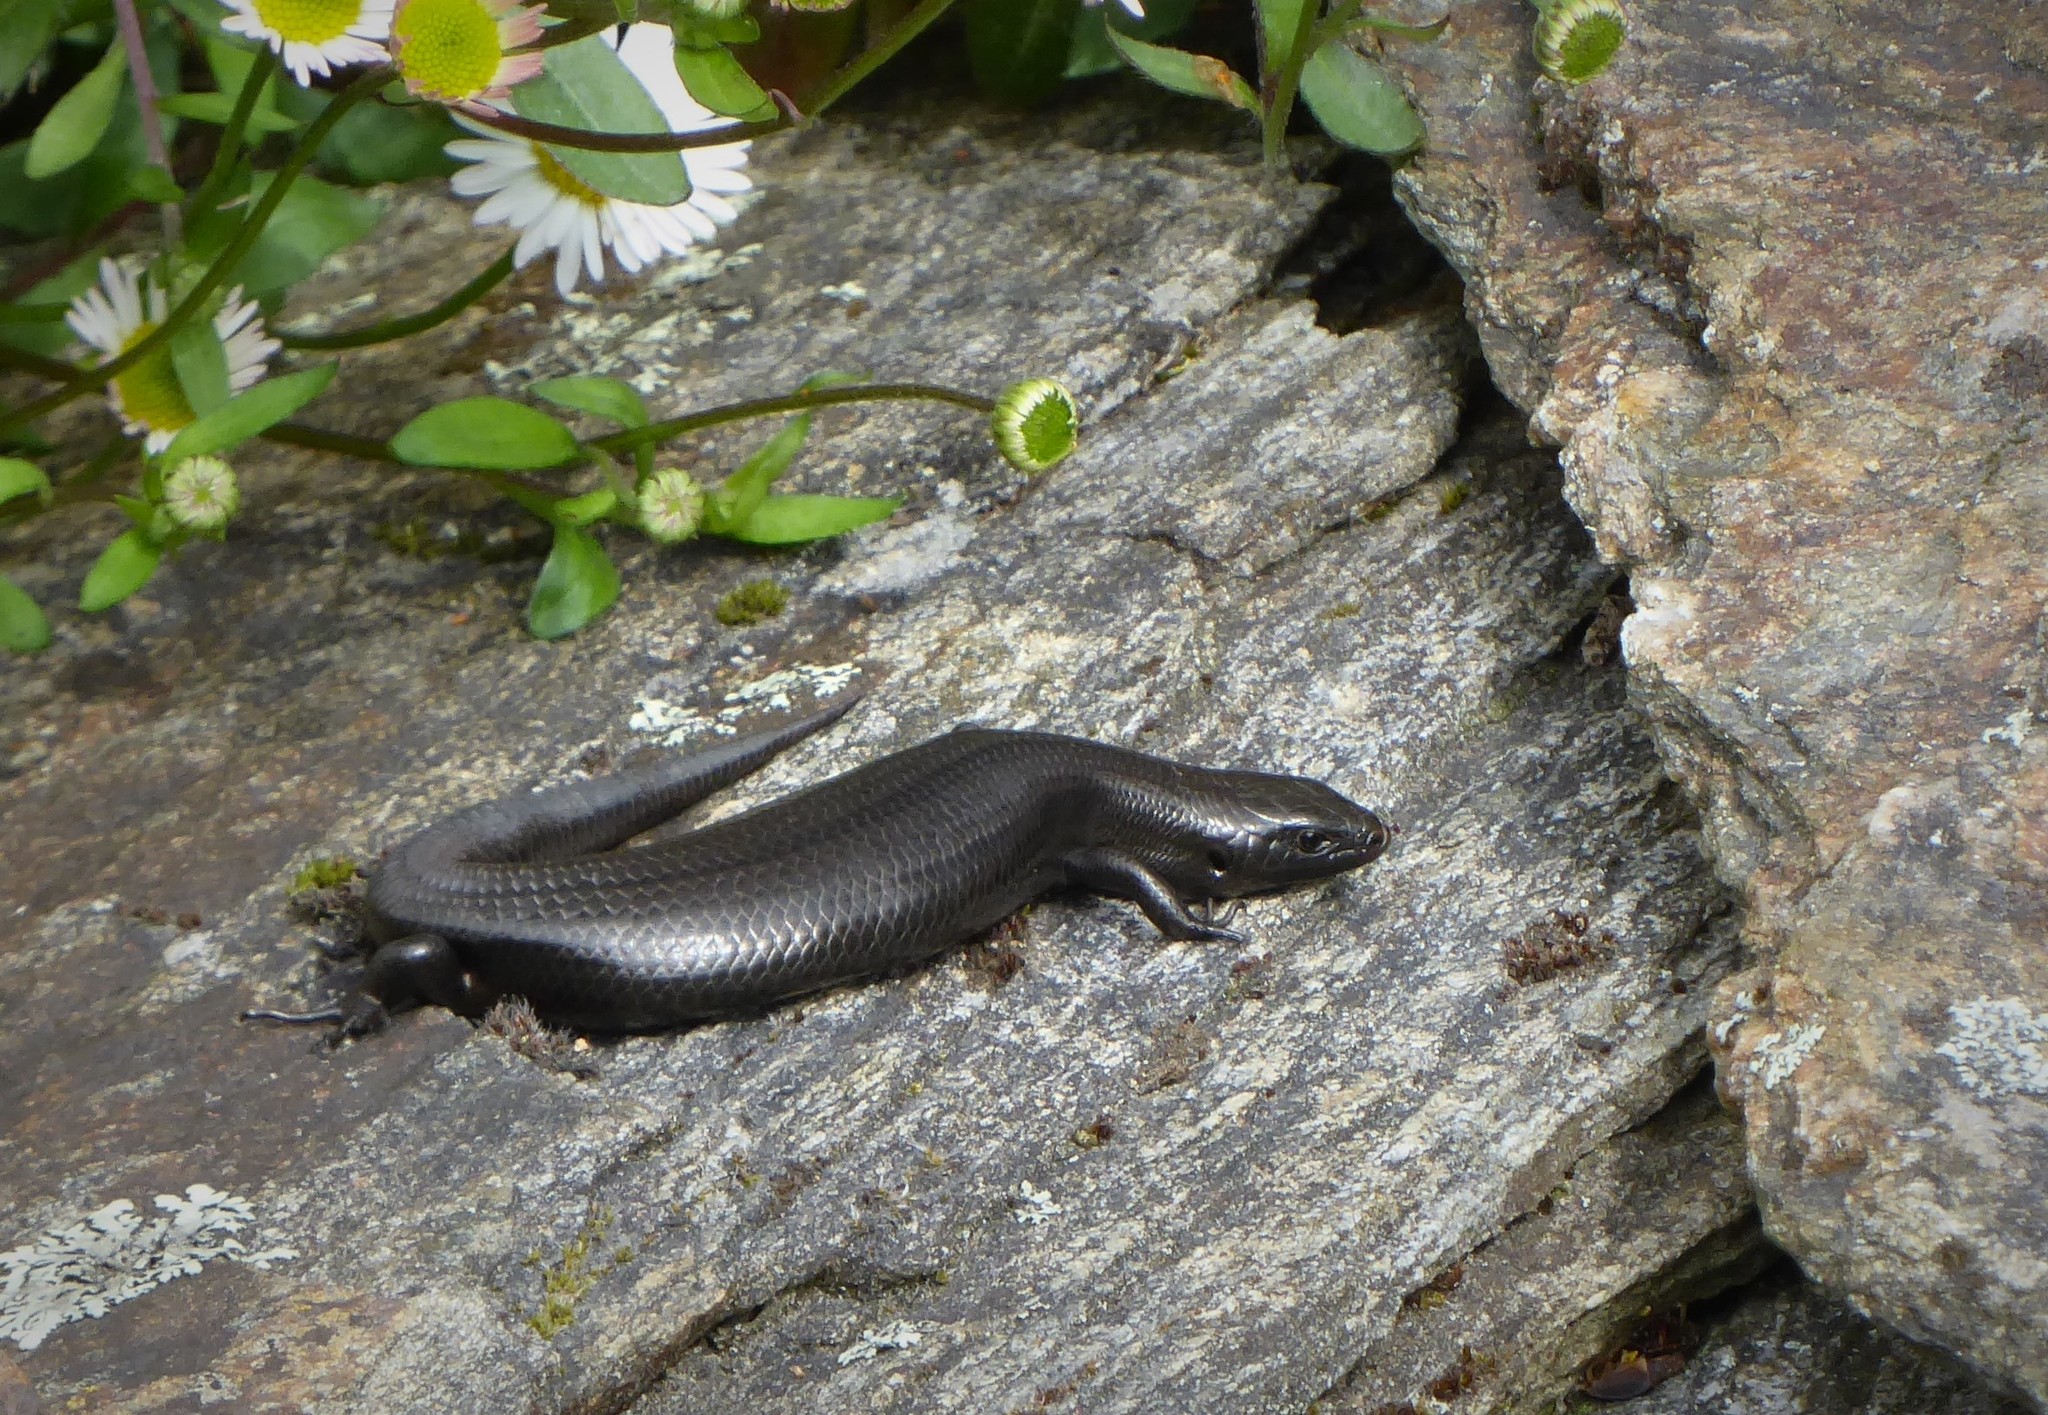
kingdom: Animalia
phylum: Chordata
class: Squamata
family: Scincidae
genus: Oligosoma
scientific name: Oligosoma polychroma
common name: Common new zealand skink
